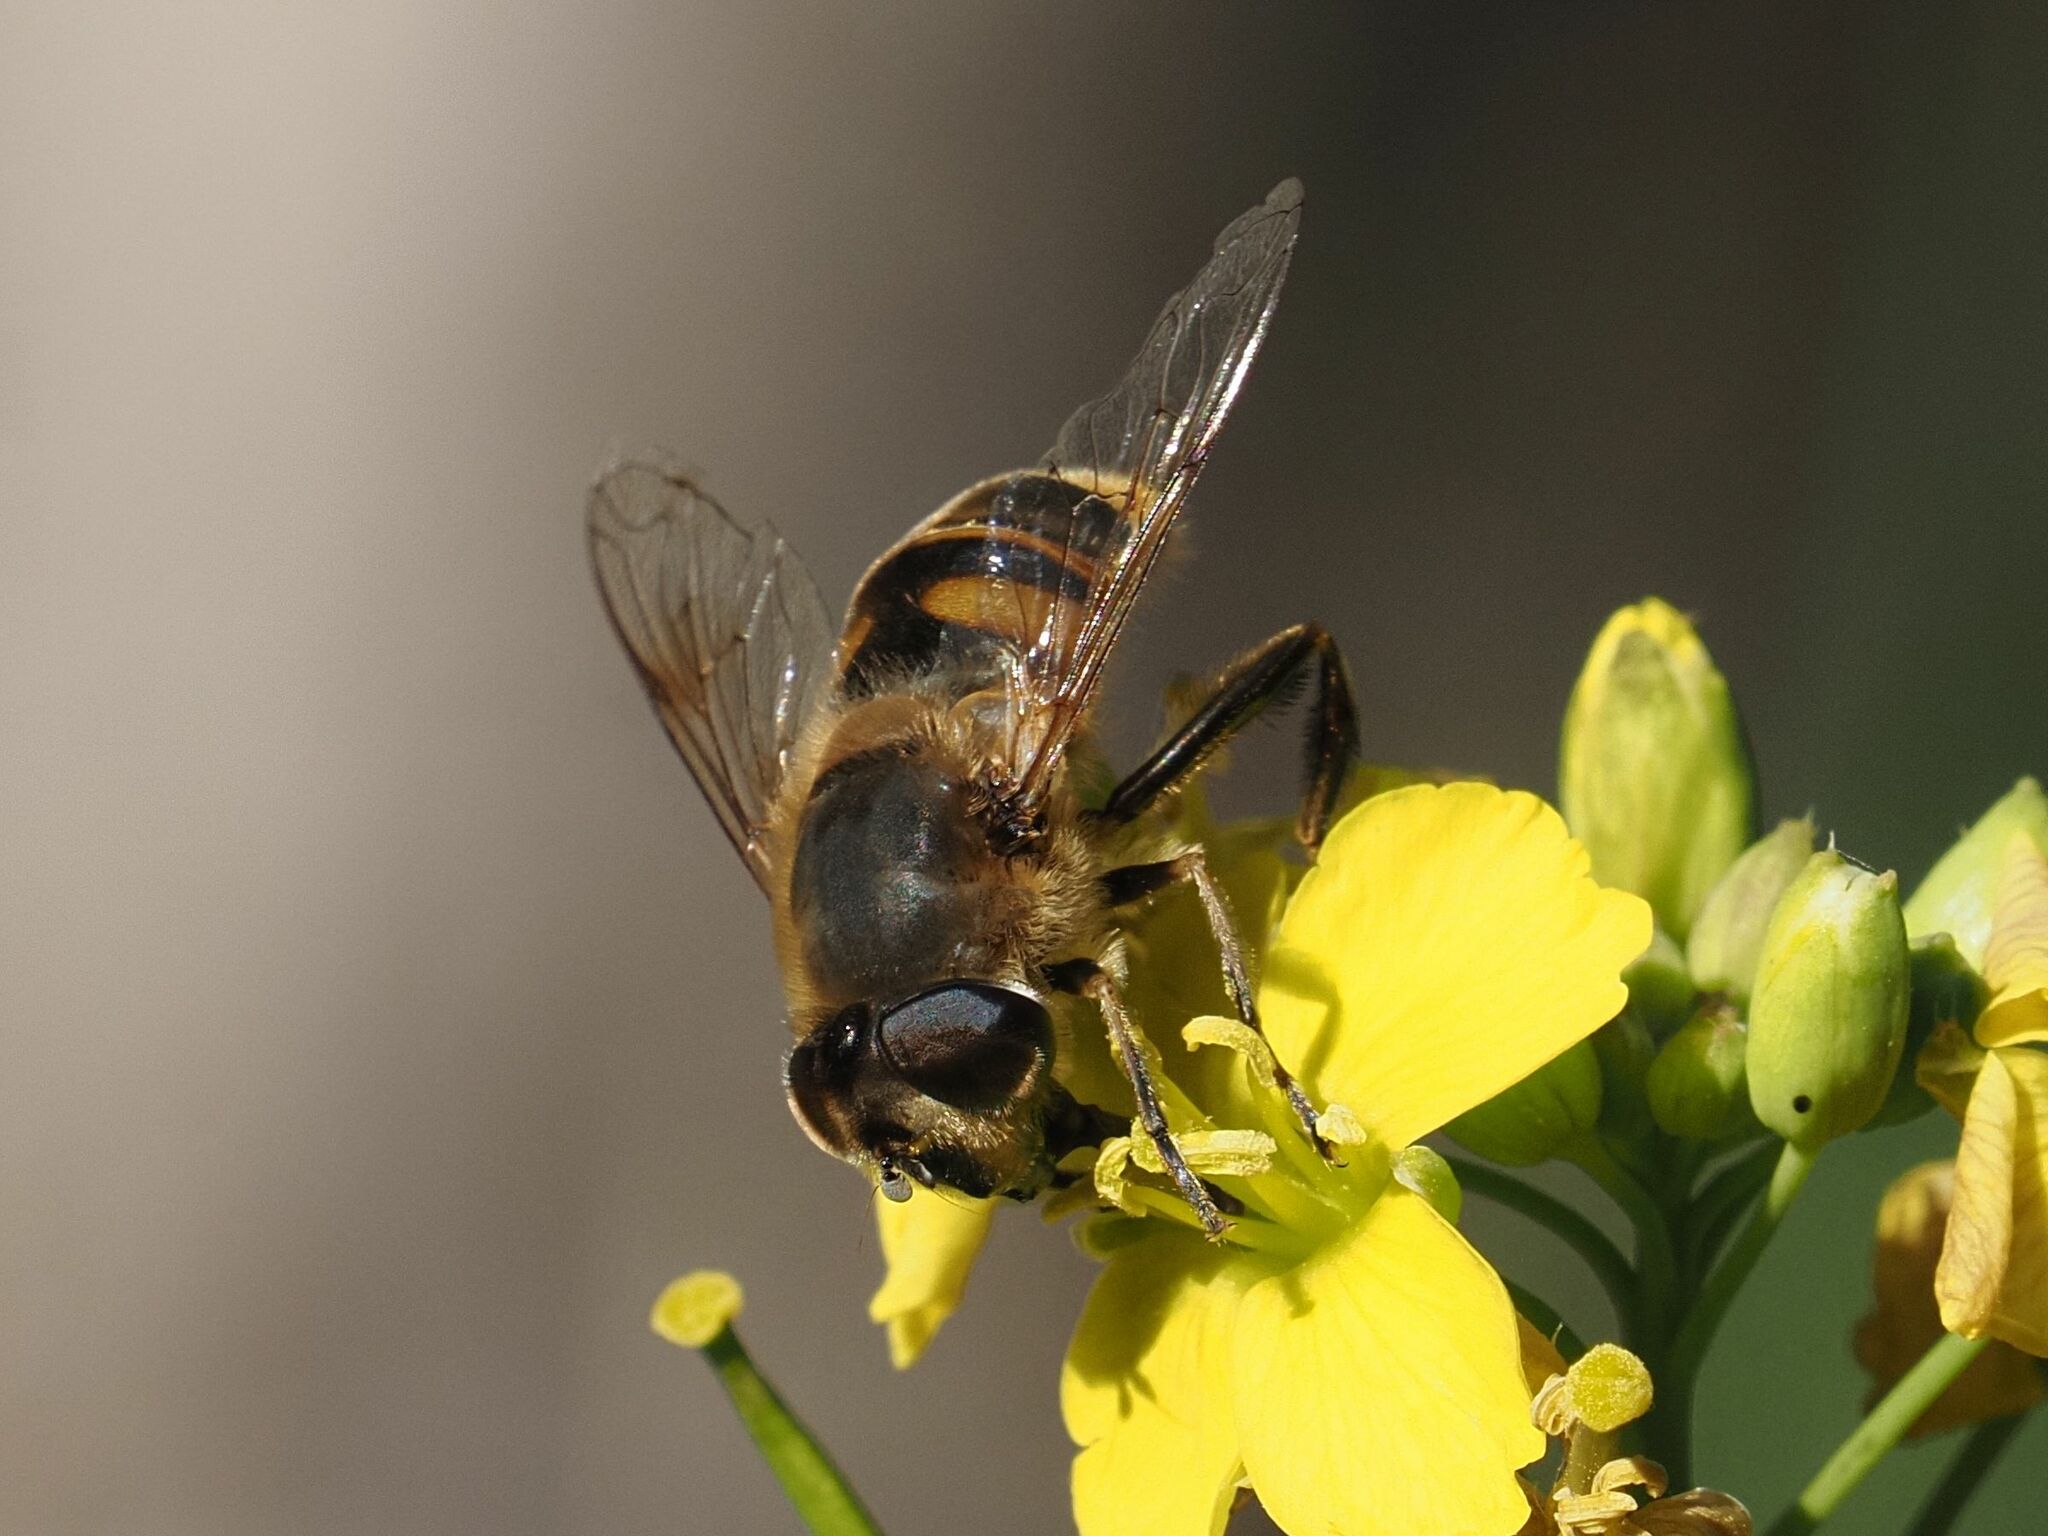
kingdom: Animalia
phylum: Arthropoda
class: Insecta
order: Diptera
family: Syrphidae
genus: Eristalis
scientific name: Eristalis tenax
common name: Drone fly
